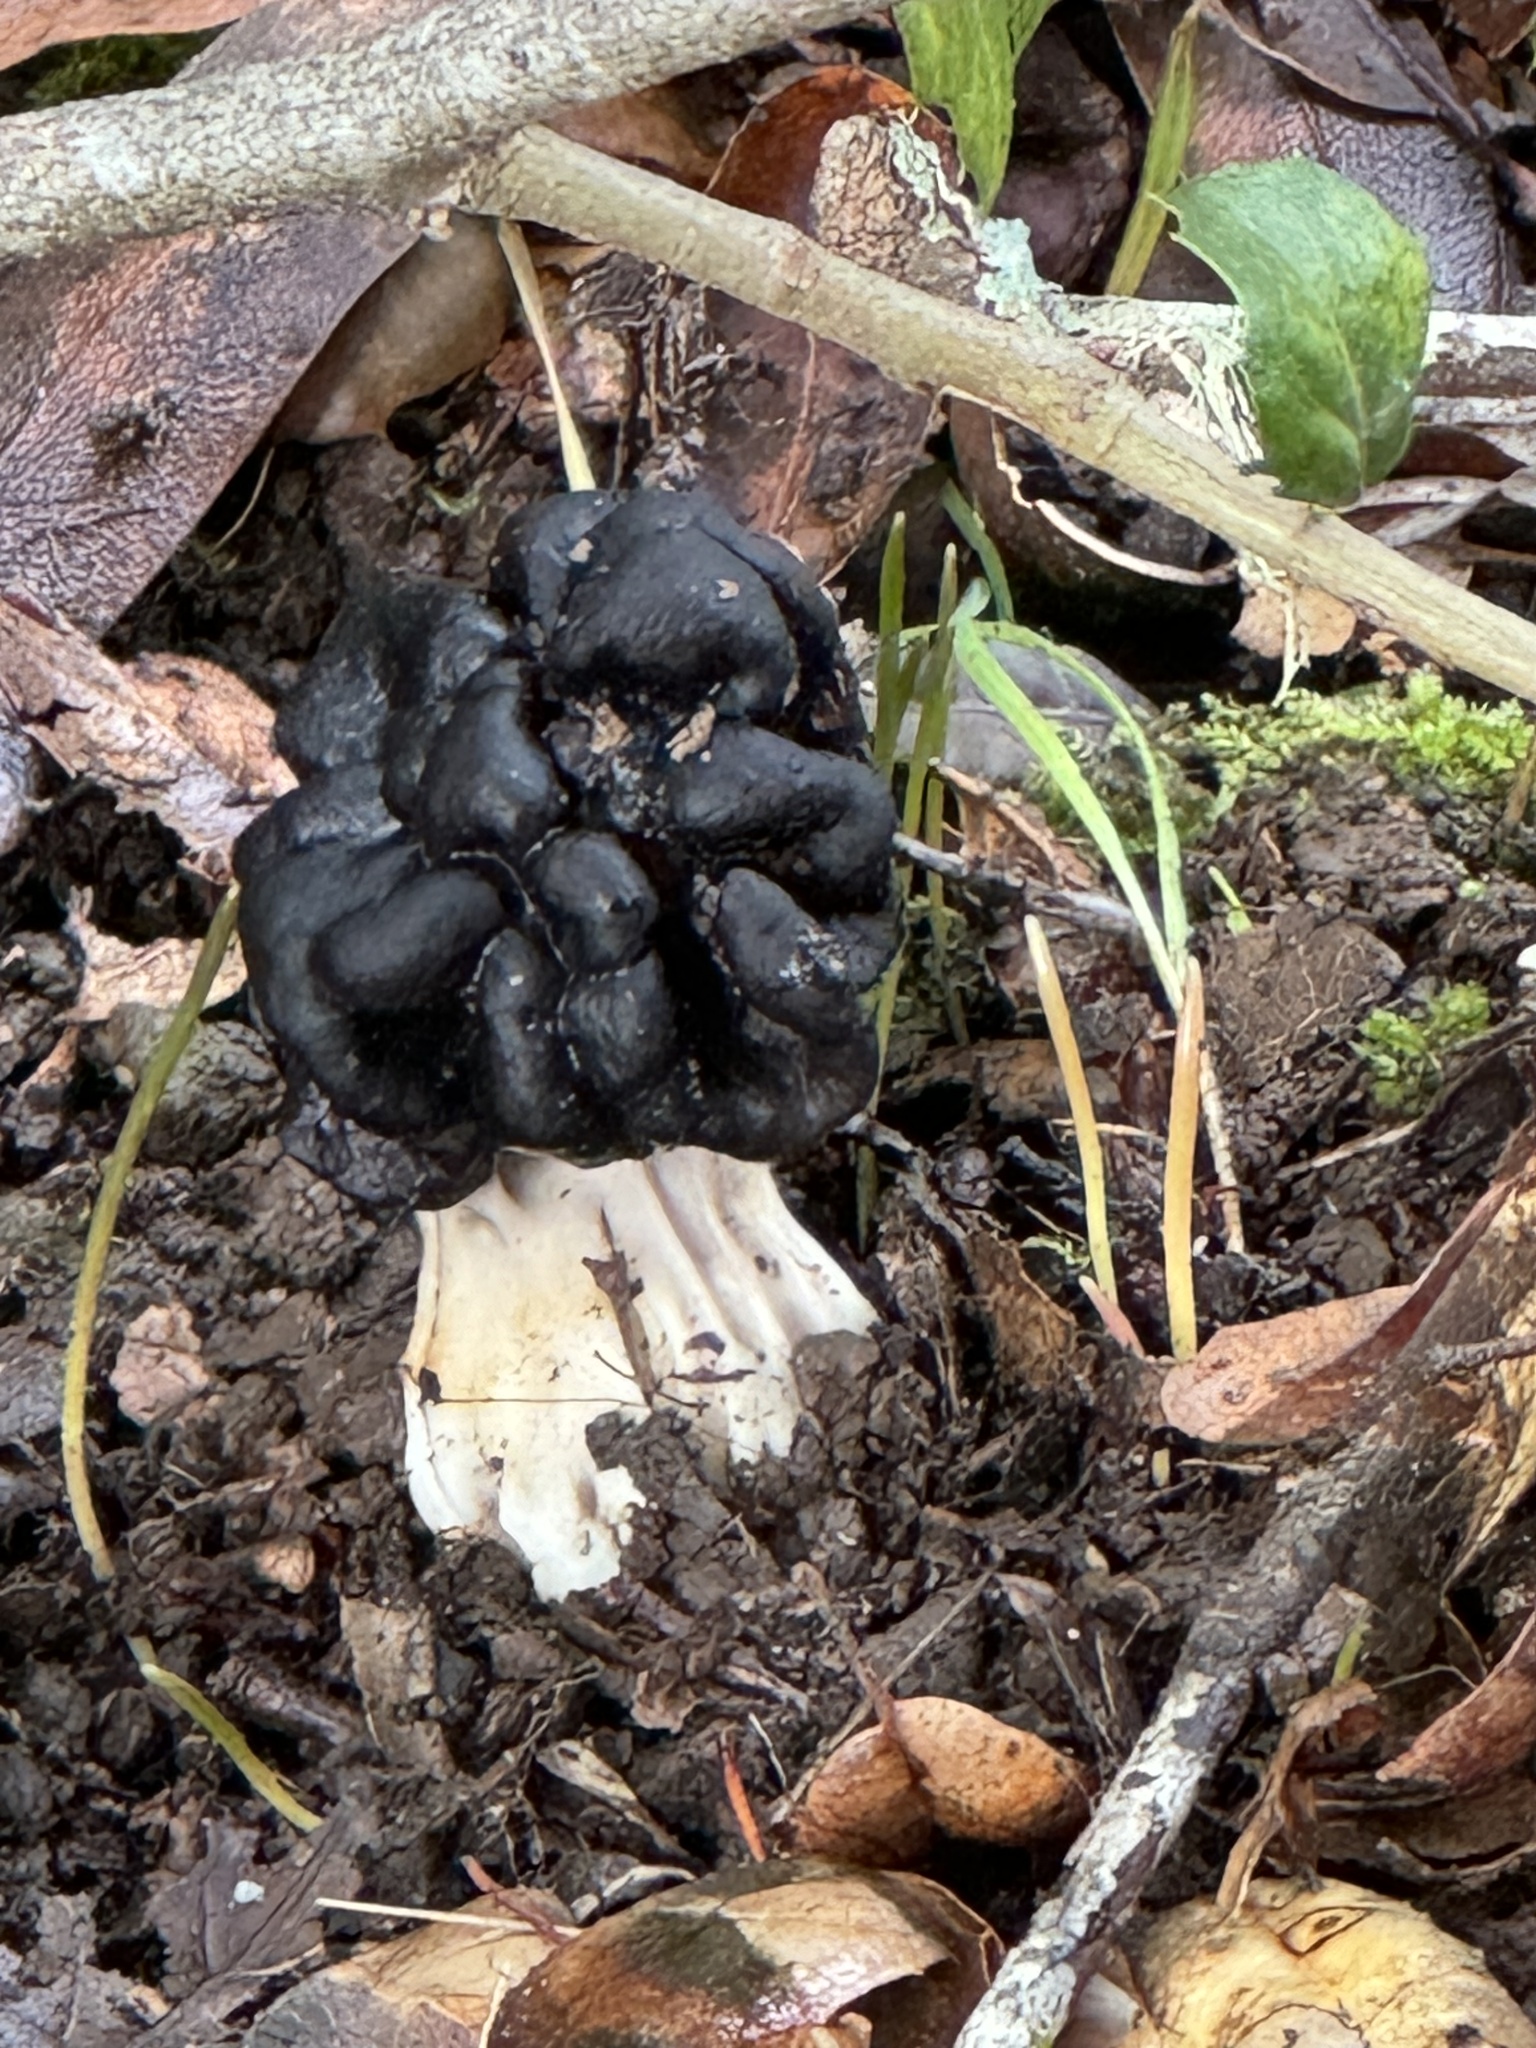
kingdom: Fungi
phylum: Ascomycota
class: Pezizomycetes
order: Pezizales
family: Helvellaceae
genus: Helvella
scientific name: Helvella dryophila
